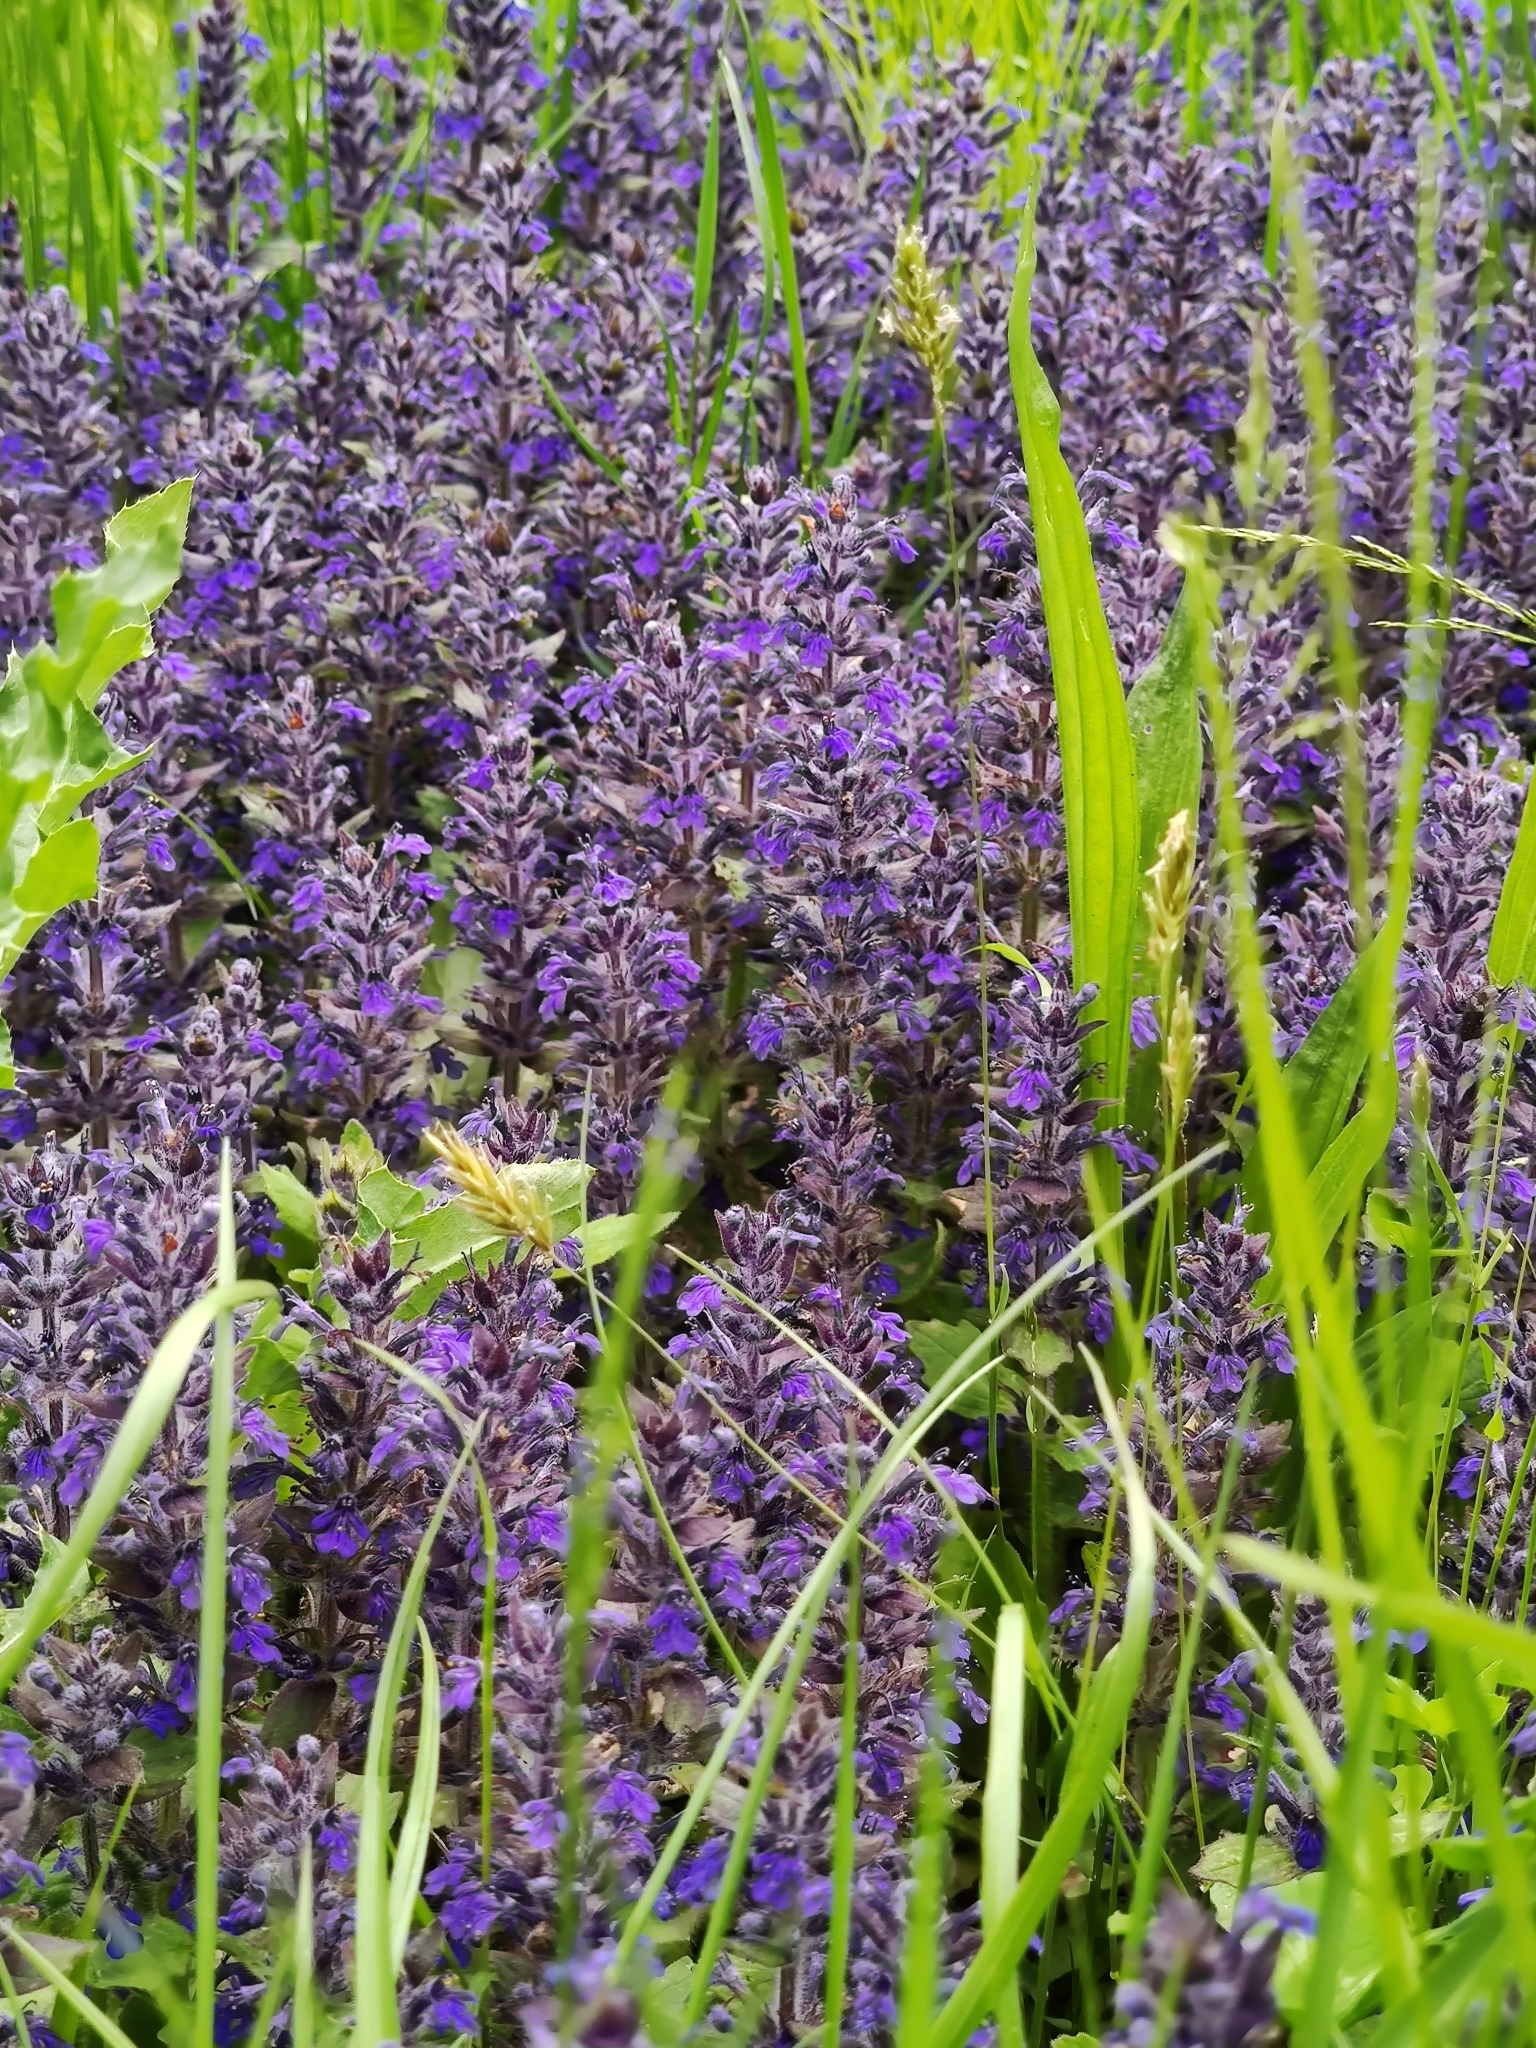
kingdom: Plantae
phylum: Tracheophyta
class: Magnoliopsida
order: Lamiales
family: Lamiaceae
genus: Ajuga
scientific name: Ajuga genevensis
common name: Blue bugle
